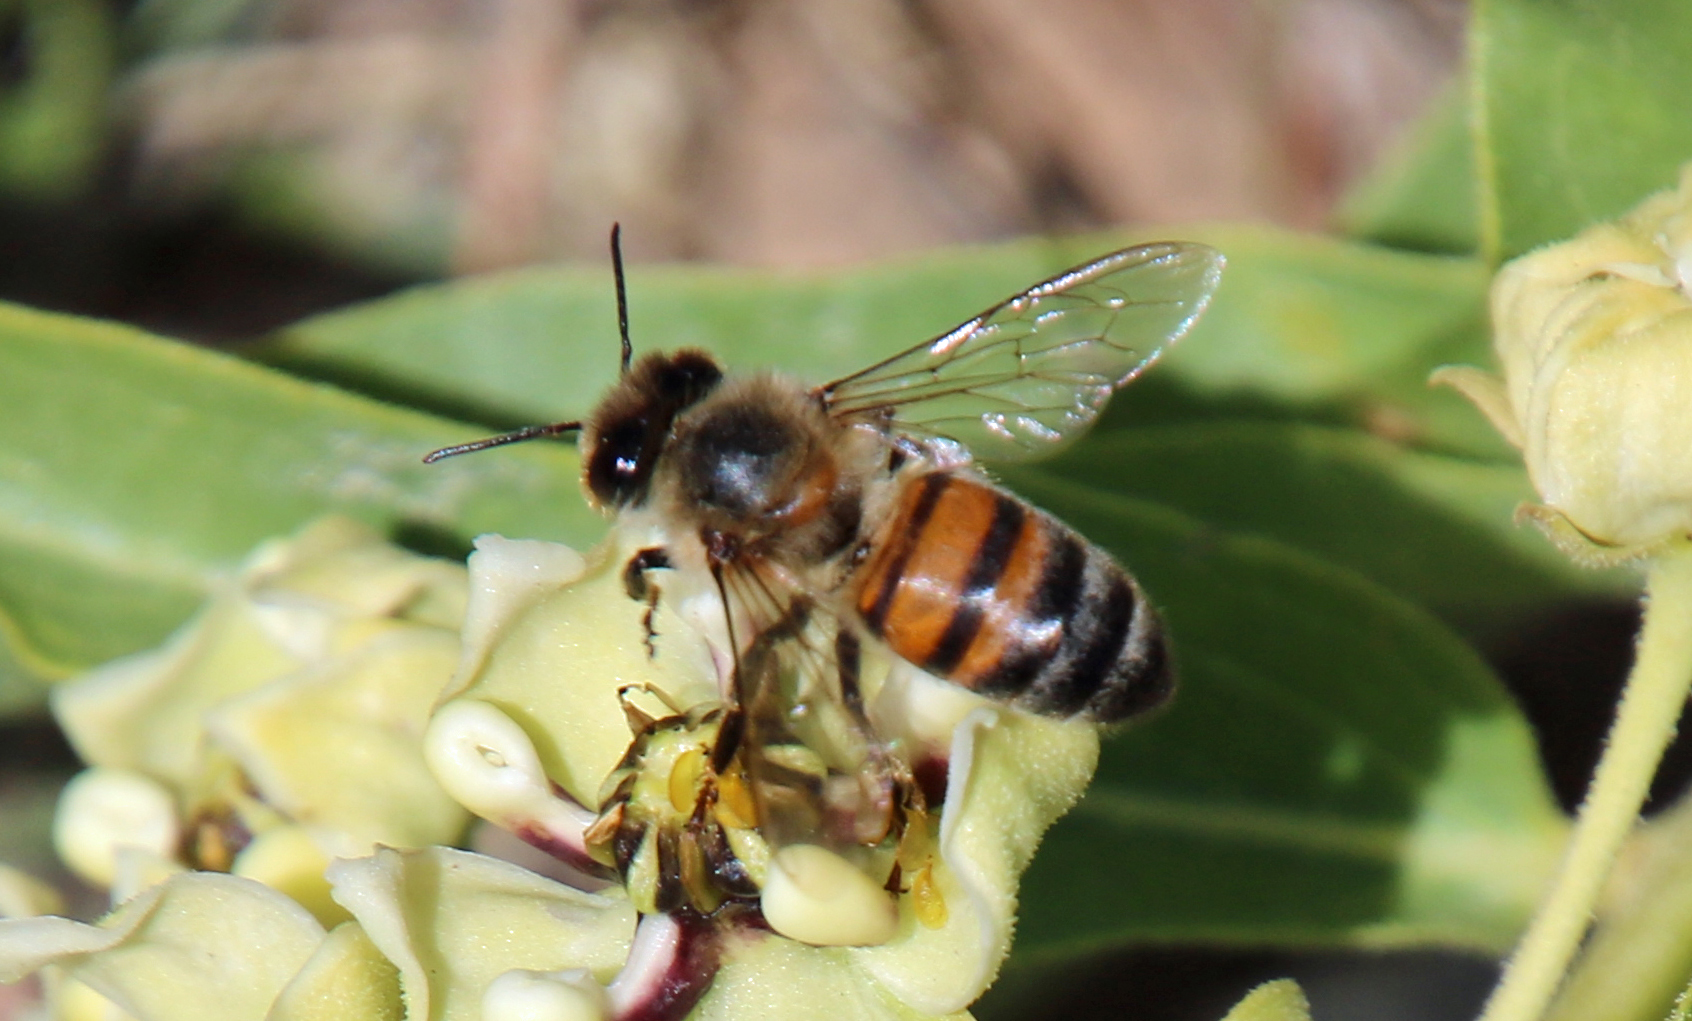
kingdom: Animalia
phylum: Arthropoda
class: Insecta
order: Hymenoptera
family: Apidae
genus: Apis
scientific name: Apis mellifera
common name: Honey bee
